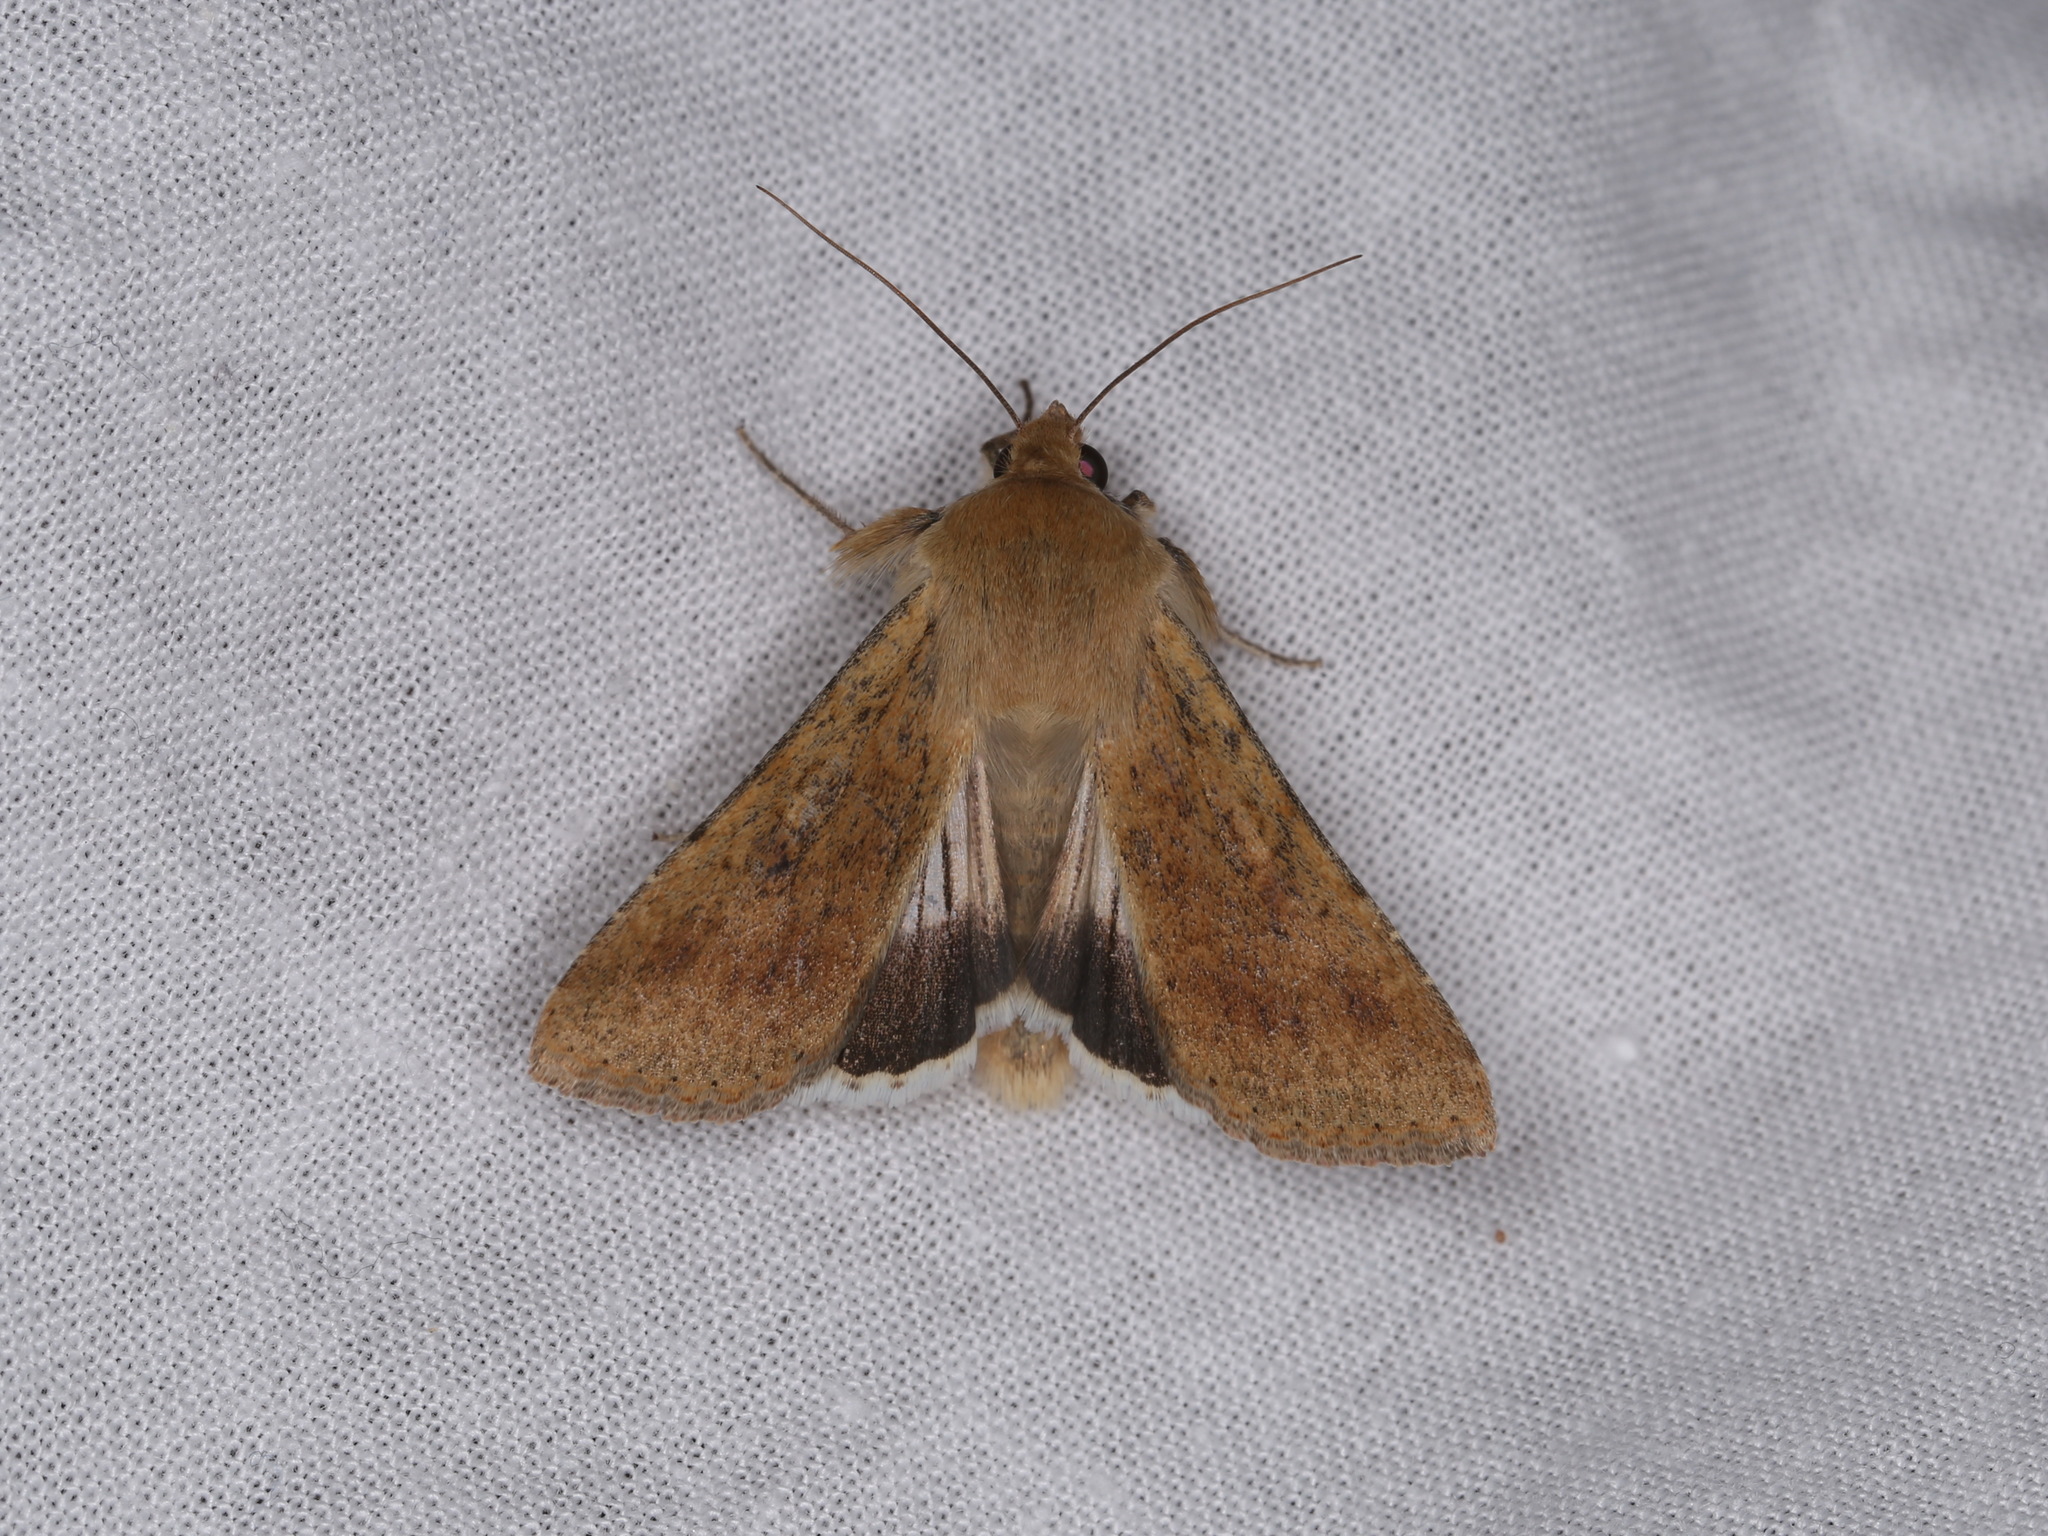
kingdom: Animalia
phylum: Arthropoda
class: Insecta
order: Lepidoptera
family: Noctuidae
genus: Helicoverpa
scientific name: Helicoverpa punctigera
